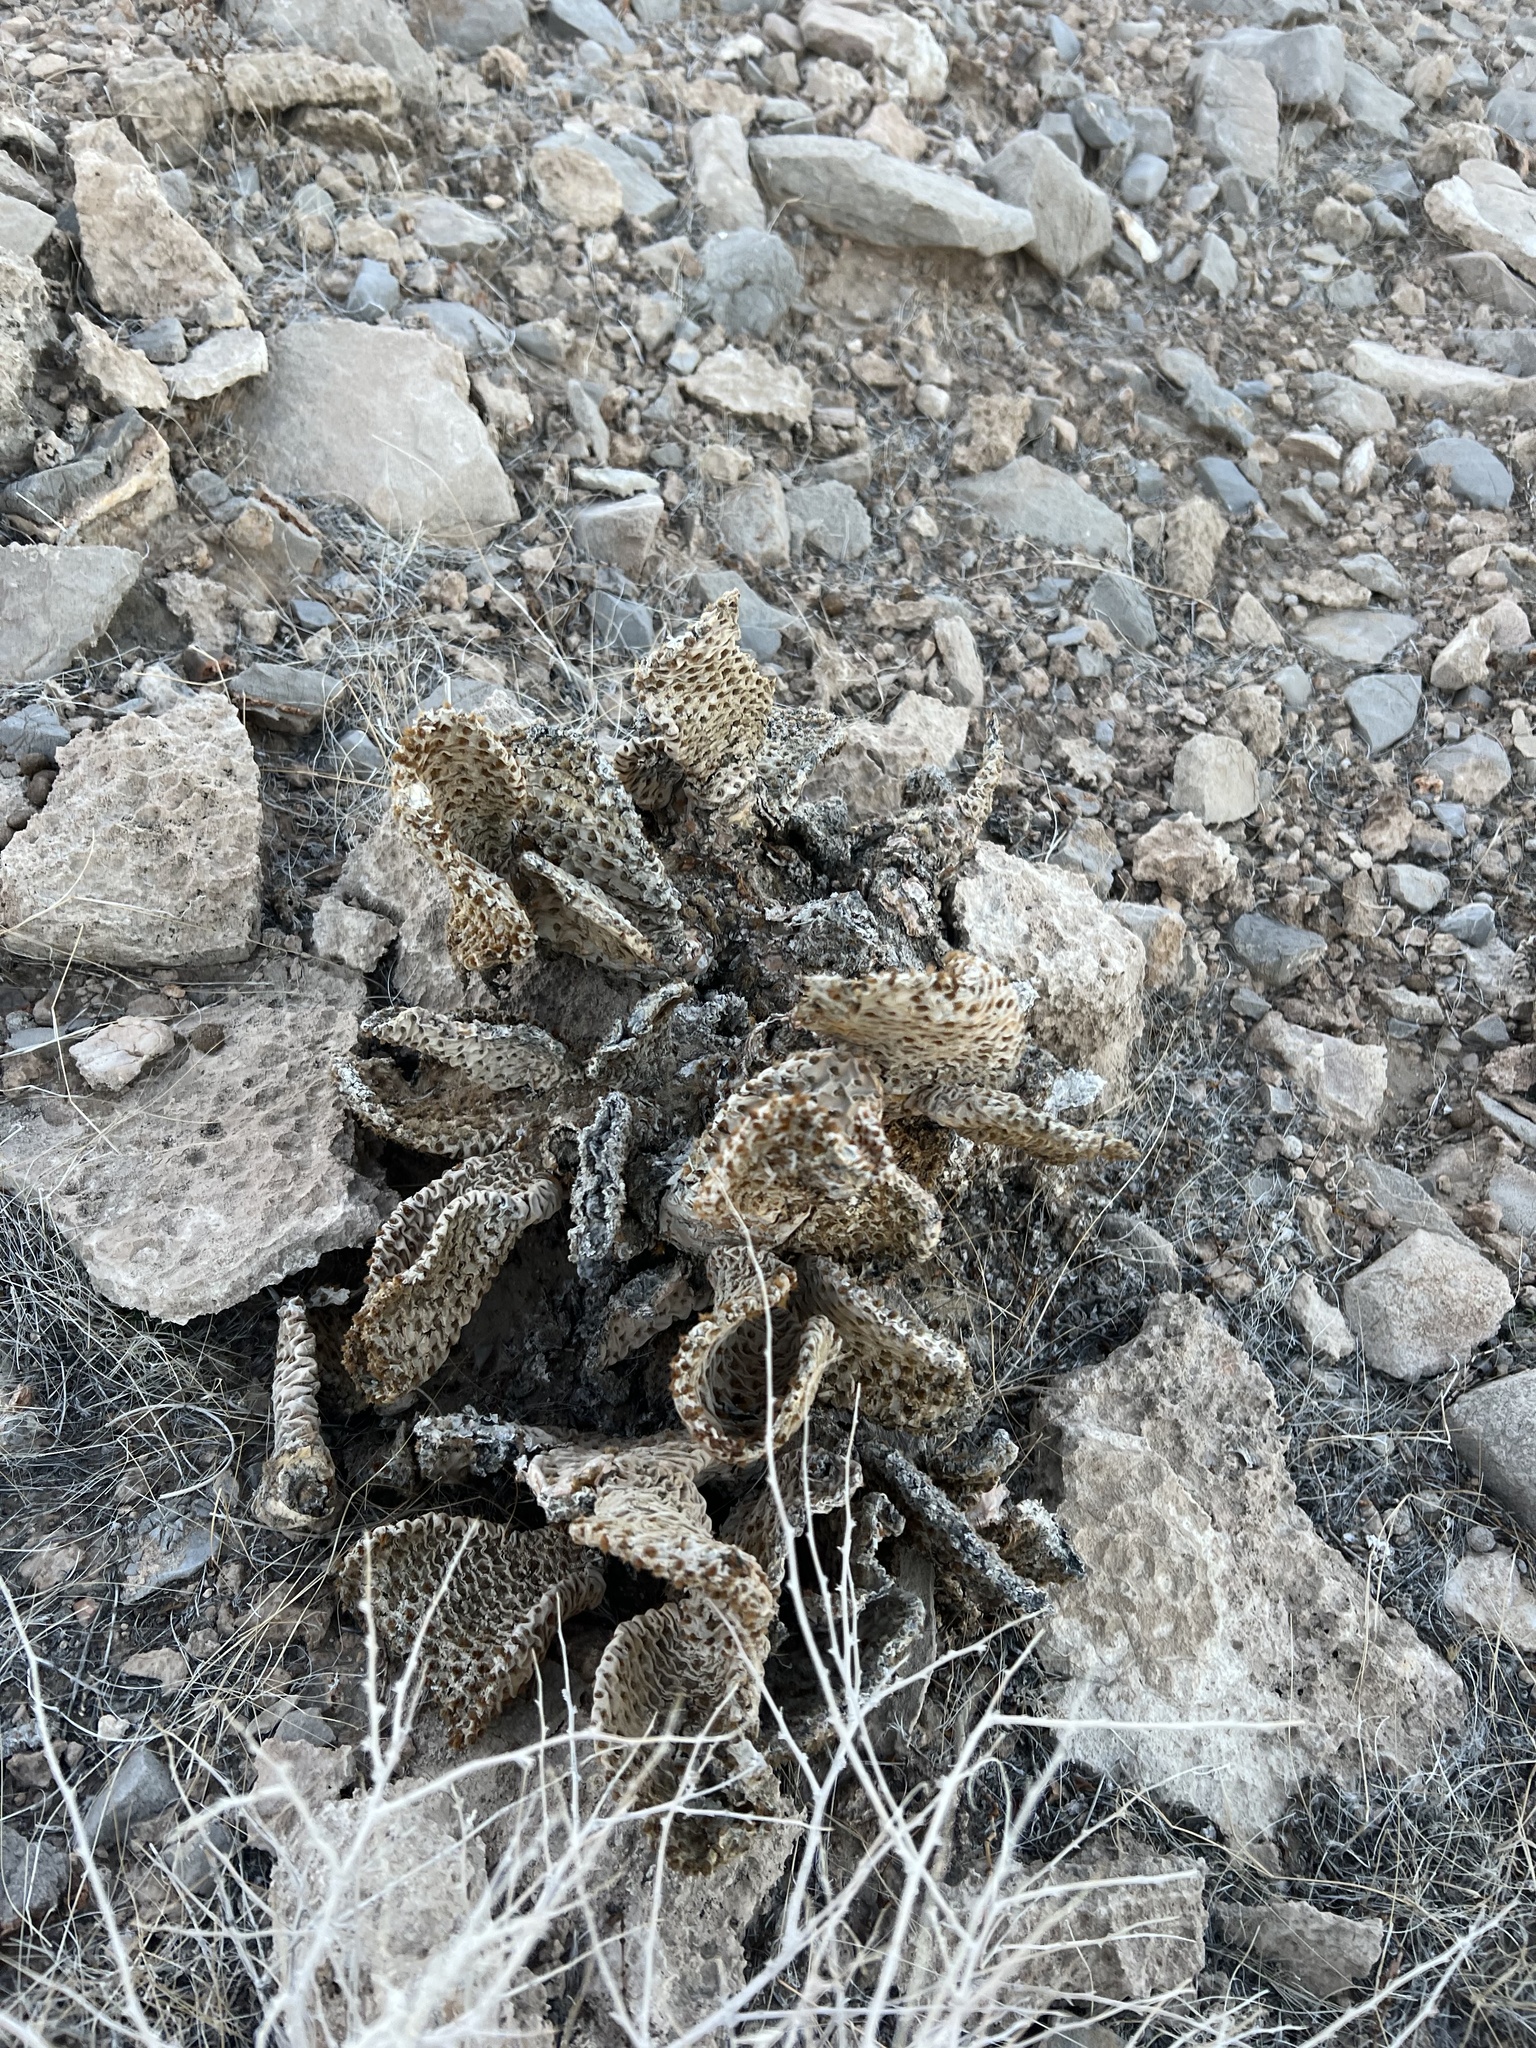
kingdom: Plantae
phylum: Tracheophyta
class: Magnoliopsida
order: Caryophyllales
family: Cactaceae
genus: Opuntia
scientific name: Opuntia basilaris
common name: Beavertail prickly-pear
